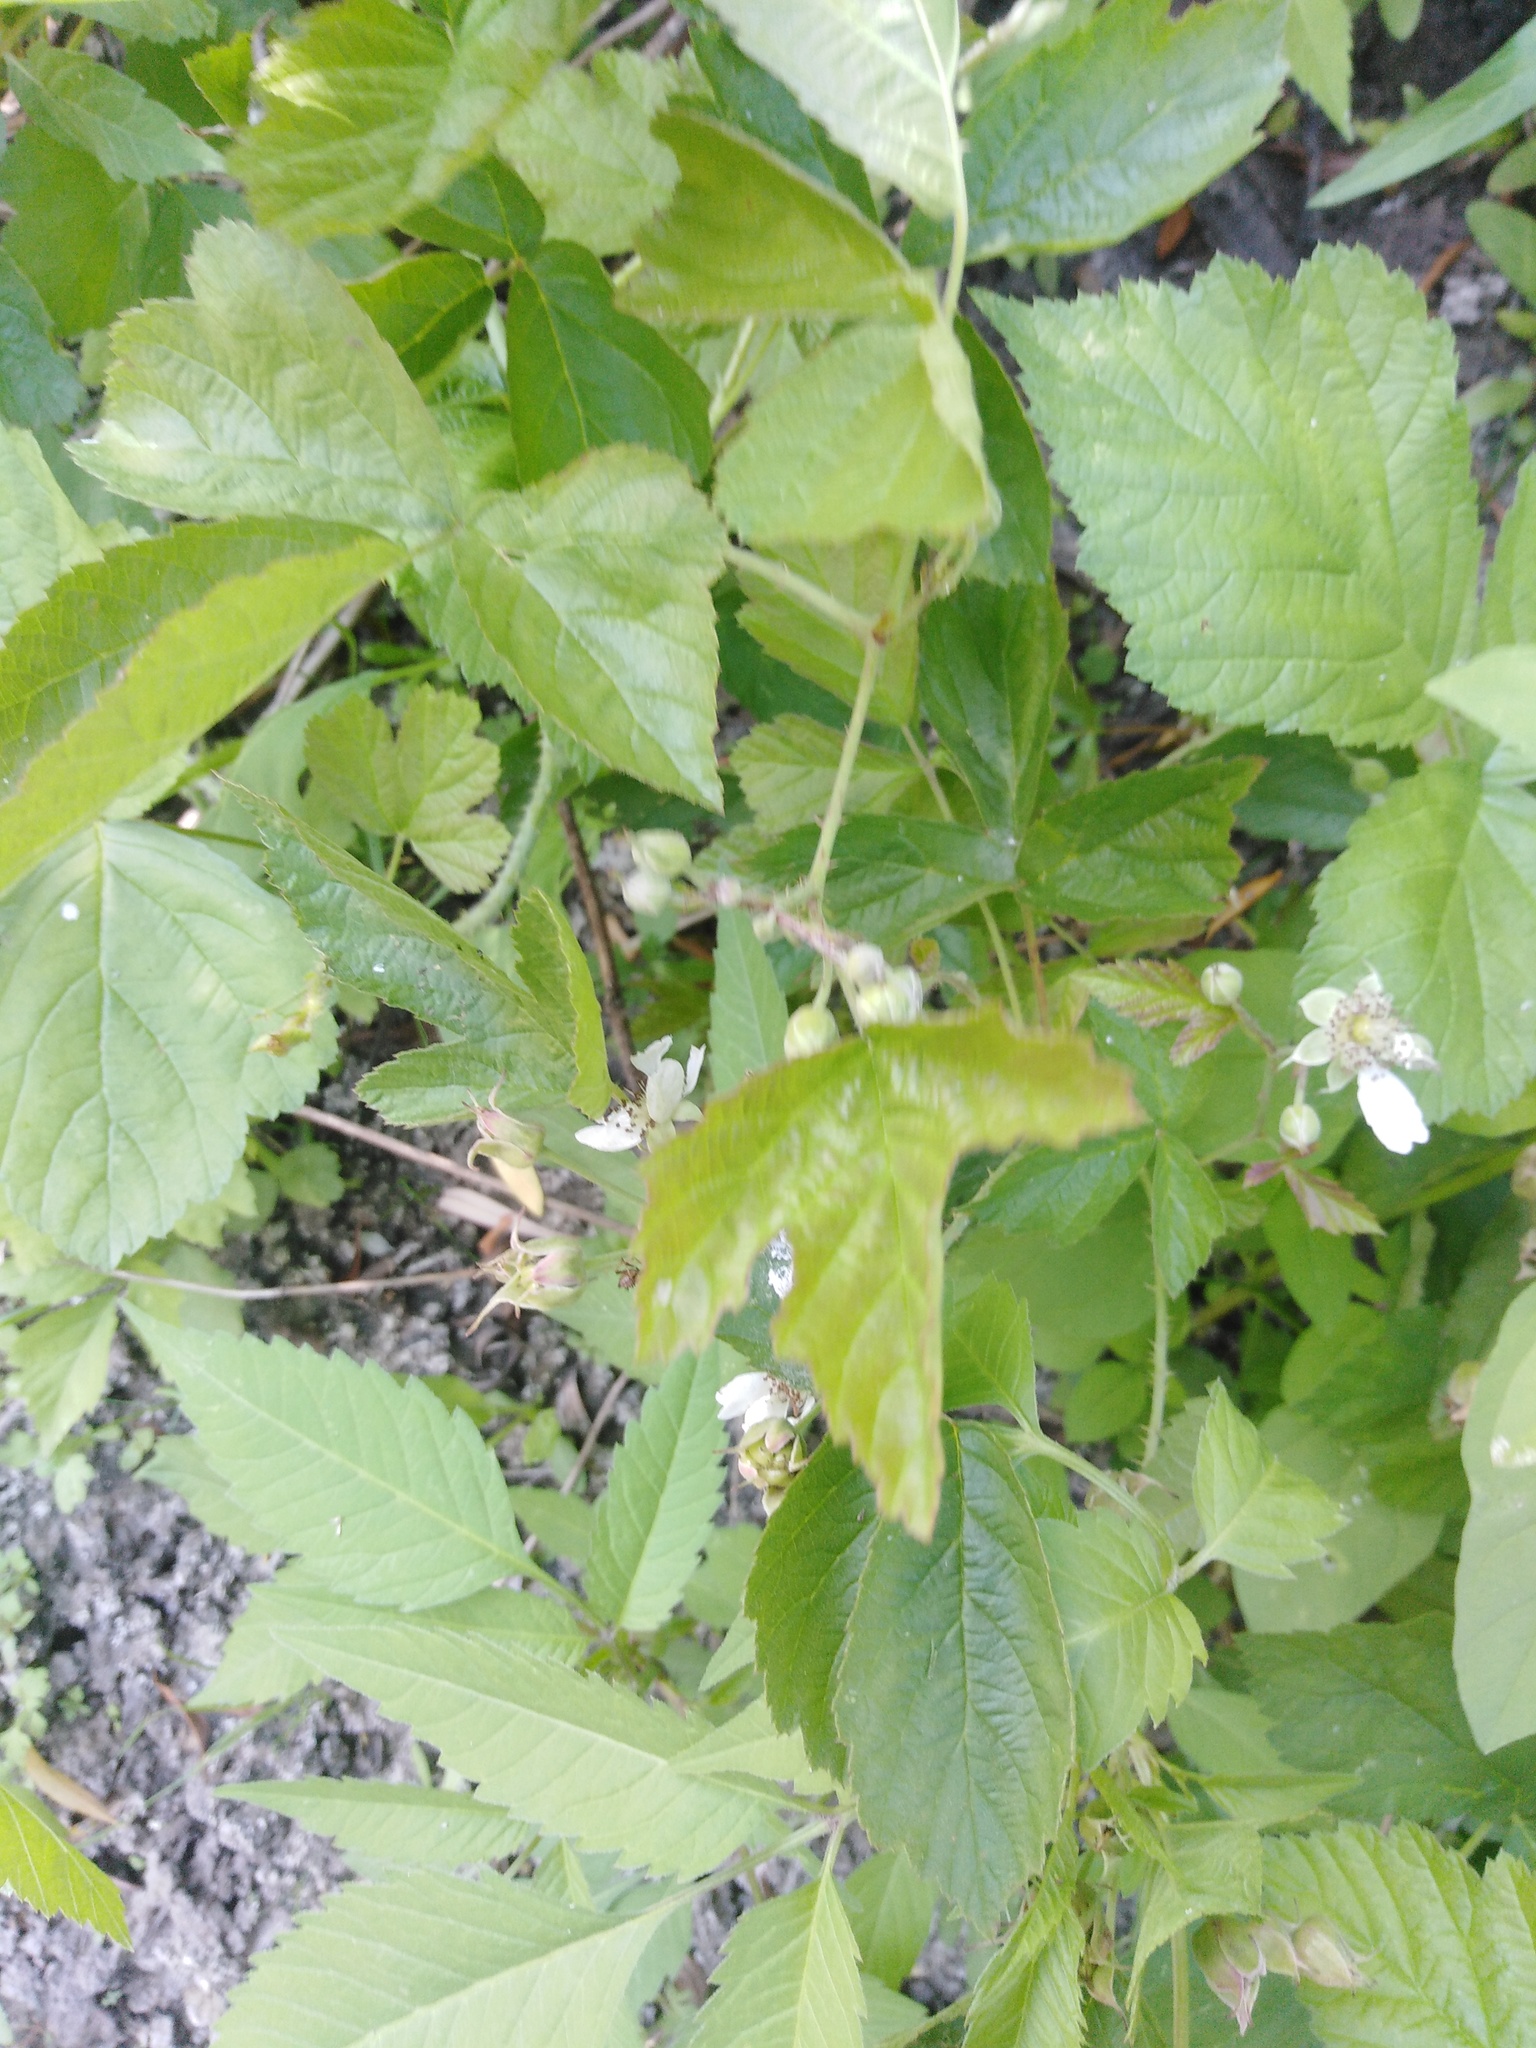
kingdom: Plantae
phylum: Tracheophyta
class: Magnoliopsida
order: Rosales
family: Rosaceae
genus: Rubus
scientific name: Rubus caesius
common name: Dewberry
